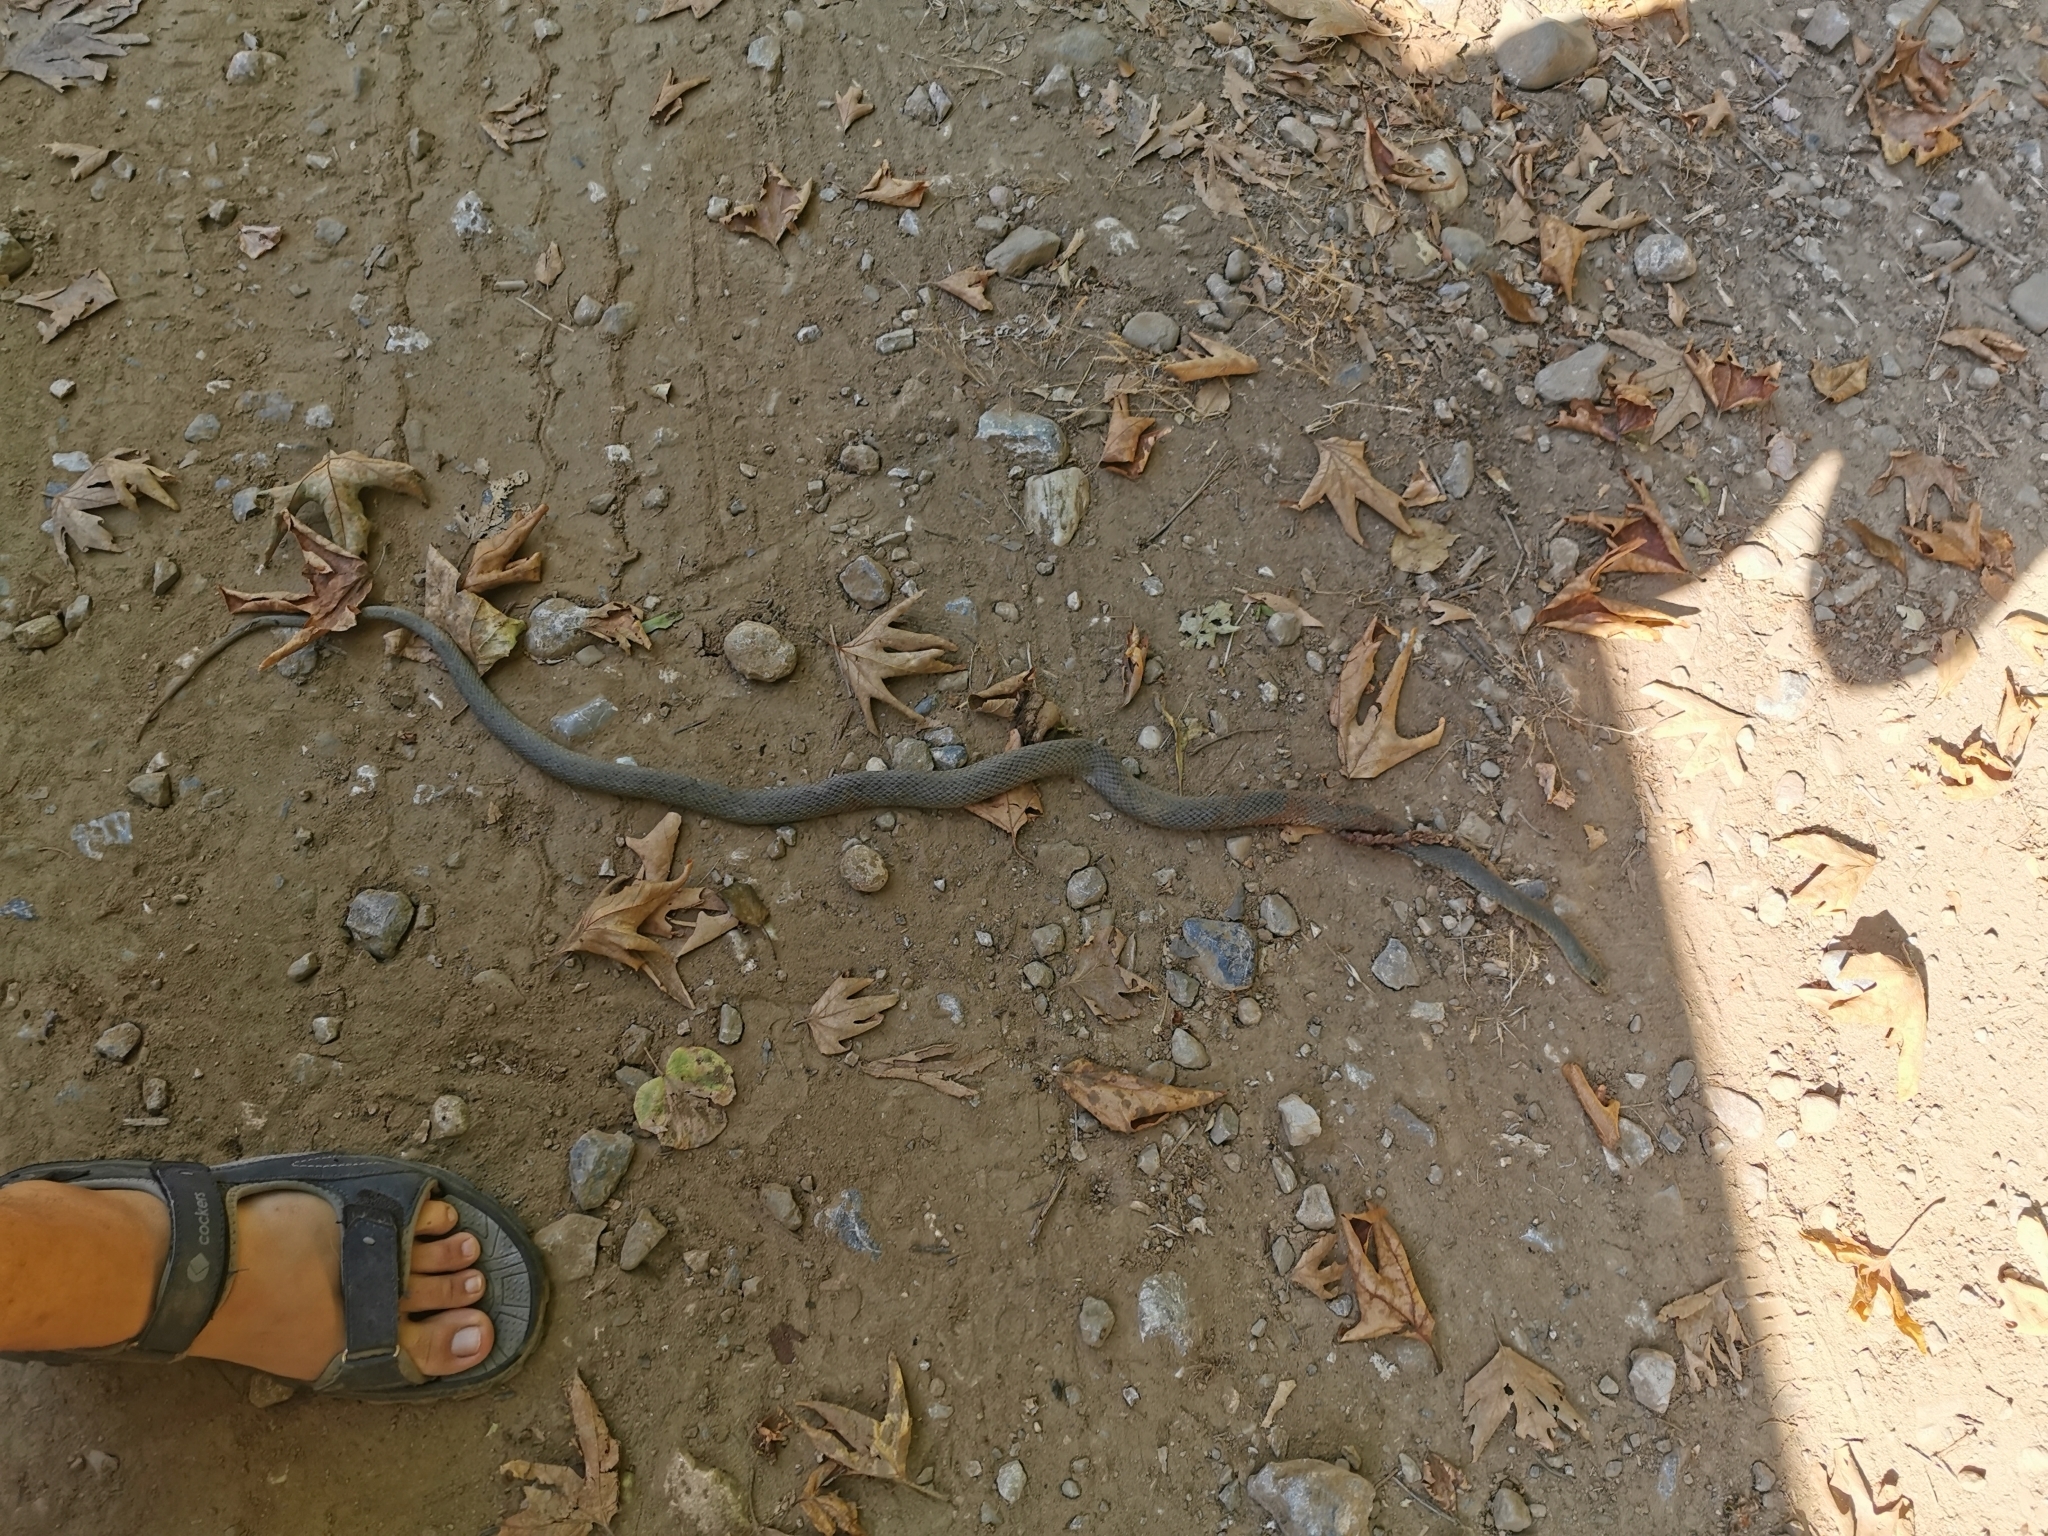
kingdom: Animalia
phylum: Chordata
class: Squamata
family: Psammophiidae
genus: Malpolon
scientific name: Malpolon insignitus
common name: Eastern montpellier snake
